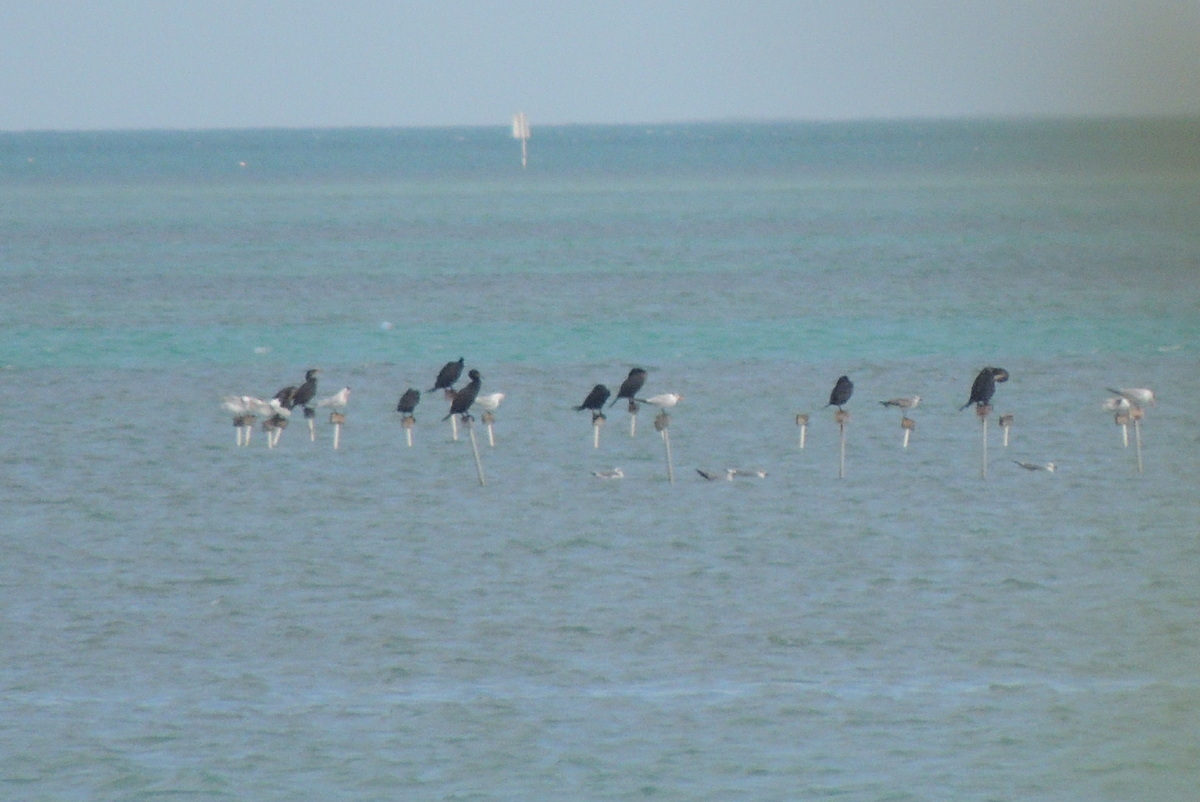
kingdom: Animalia
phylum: Chordata
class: Aves
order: Suliformes
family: Phalacrocoracidae
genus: Phalacrocorax
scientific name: Phalacrocorax auritus
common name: Double-crested cormorant
